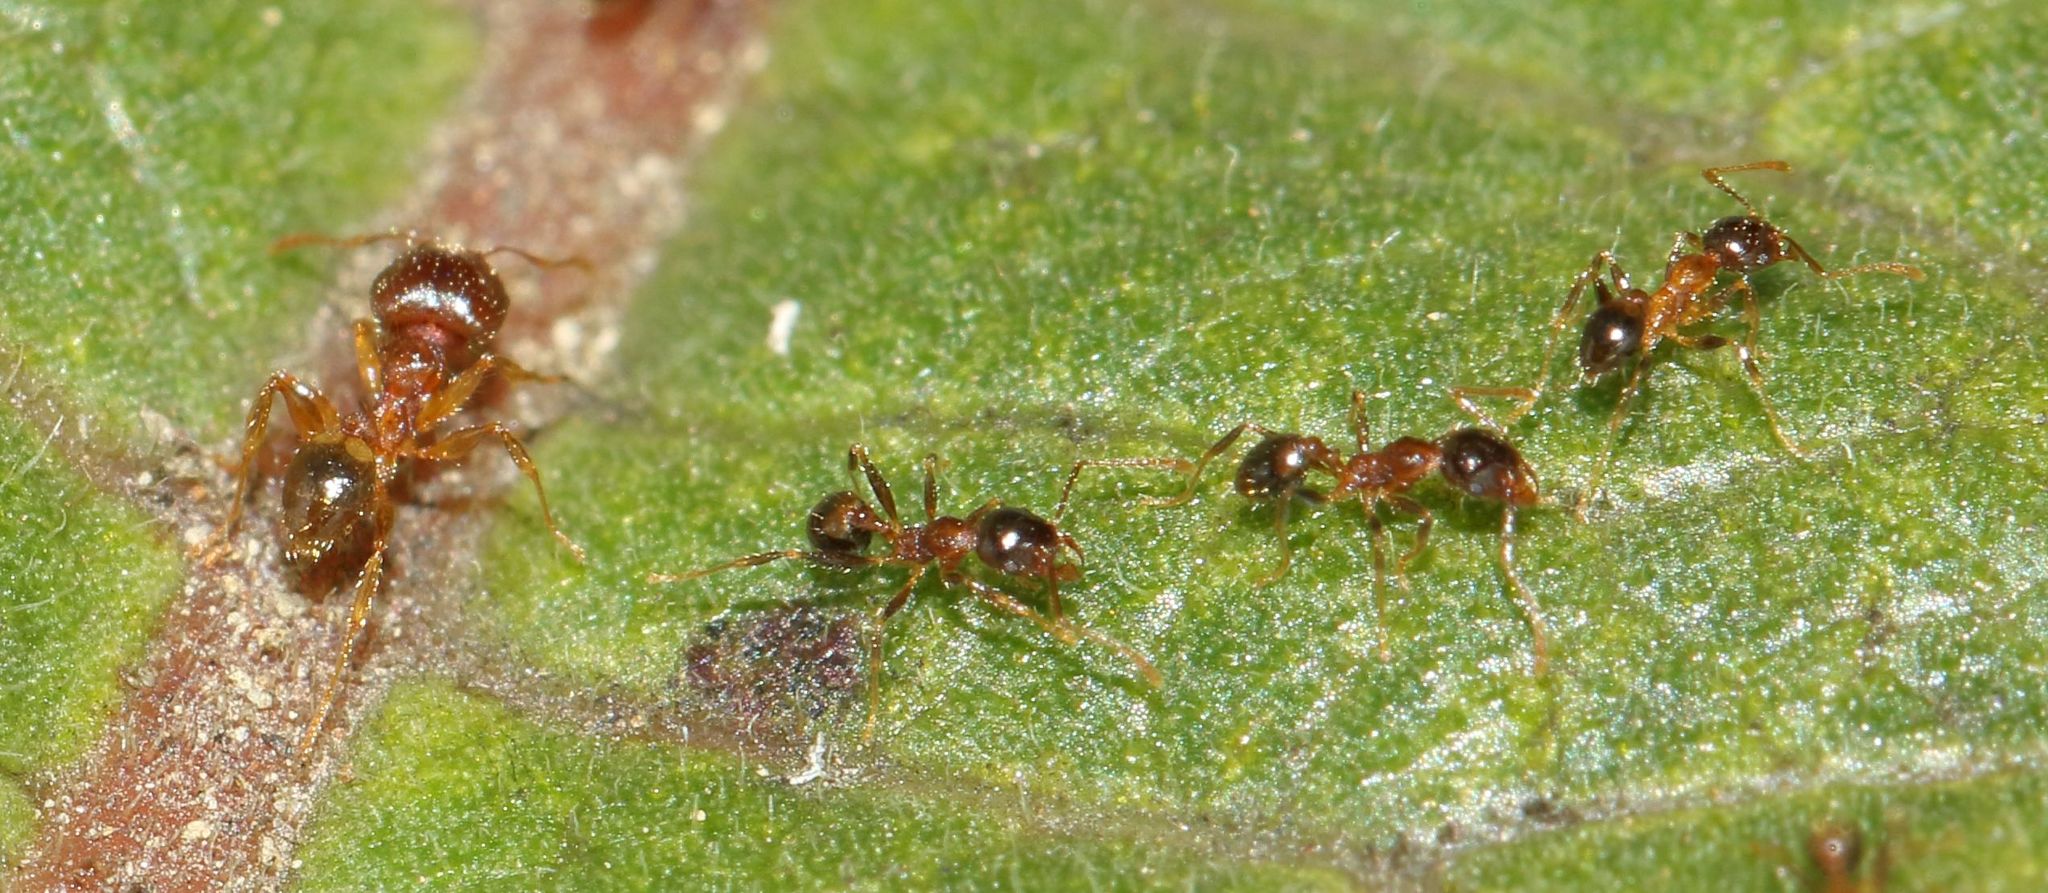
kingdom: Animalia
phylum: Arthropoda
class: Insecta
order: Hymenoptera
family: Formicidae
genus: Pheidole
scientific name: Pheidole megacephala
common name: Bigheaded ant
